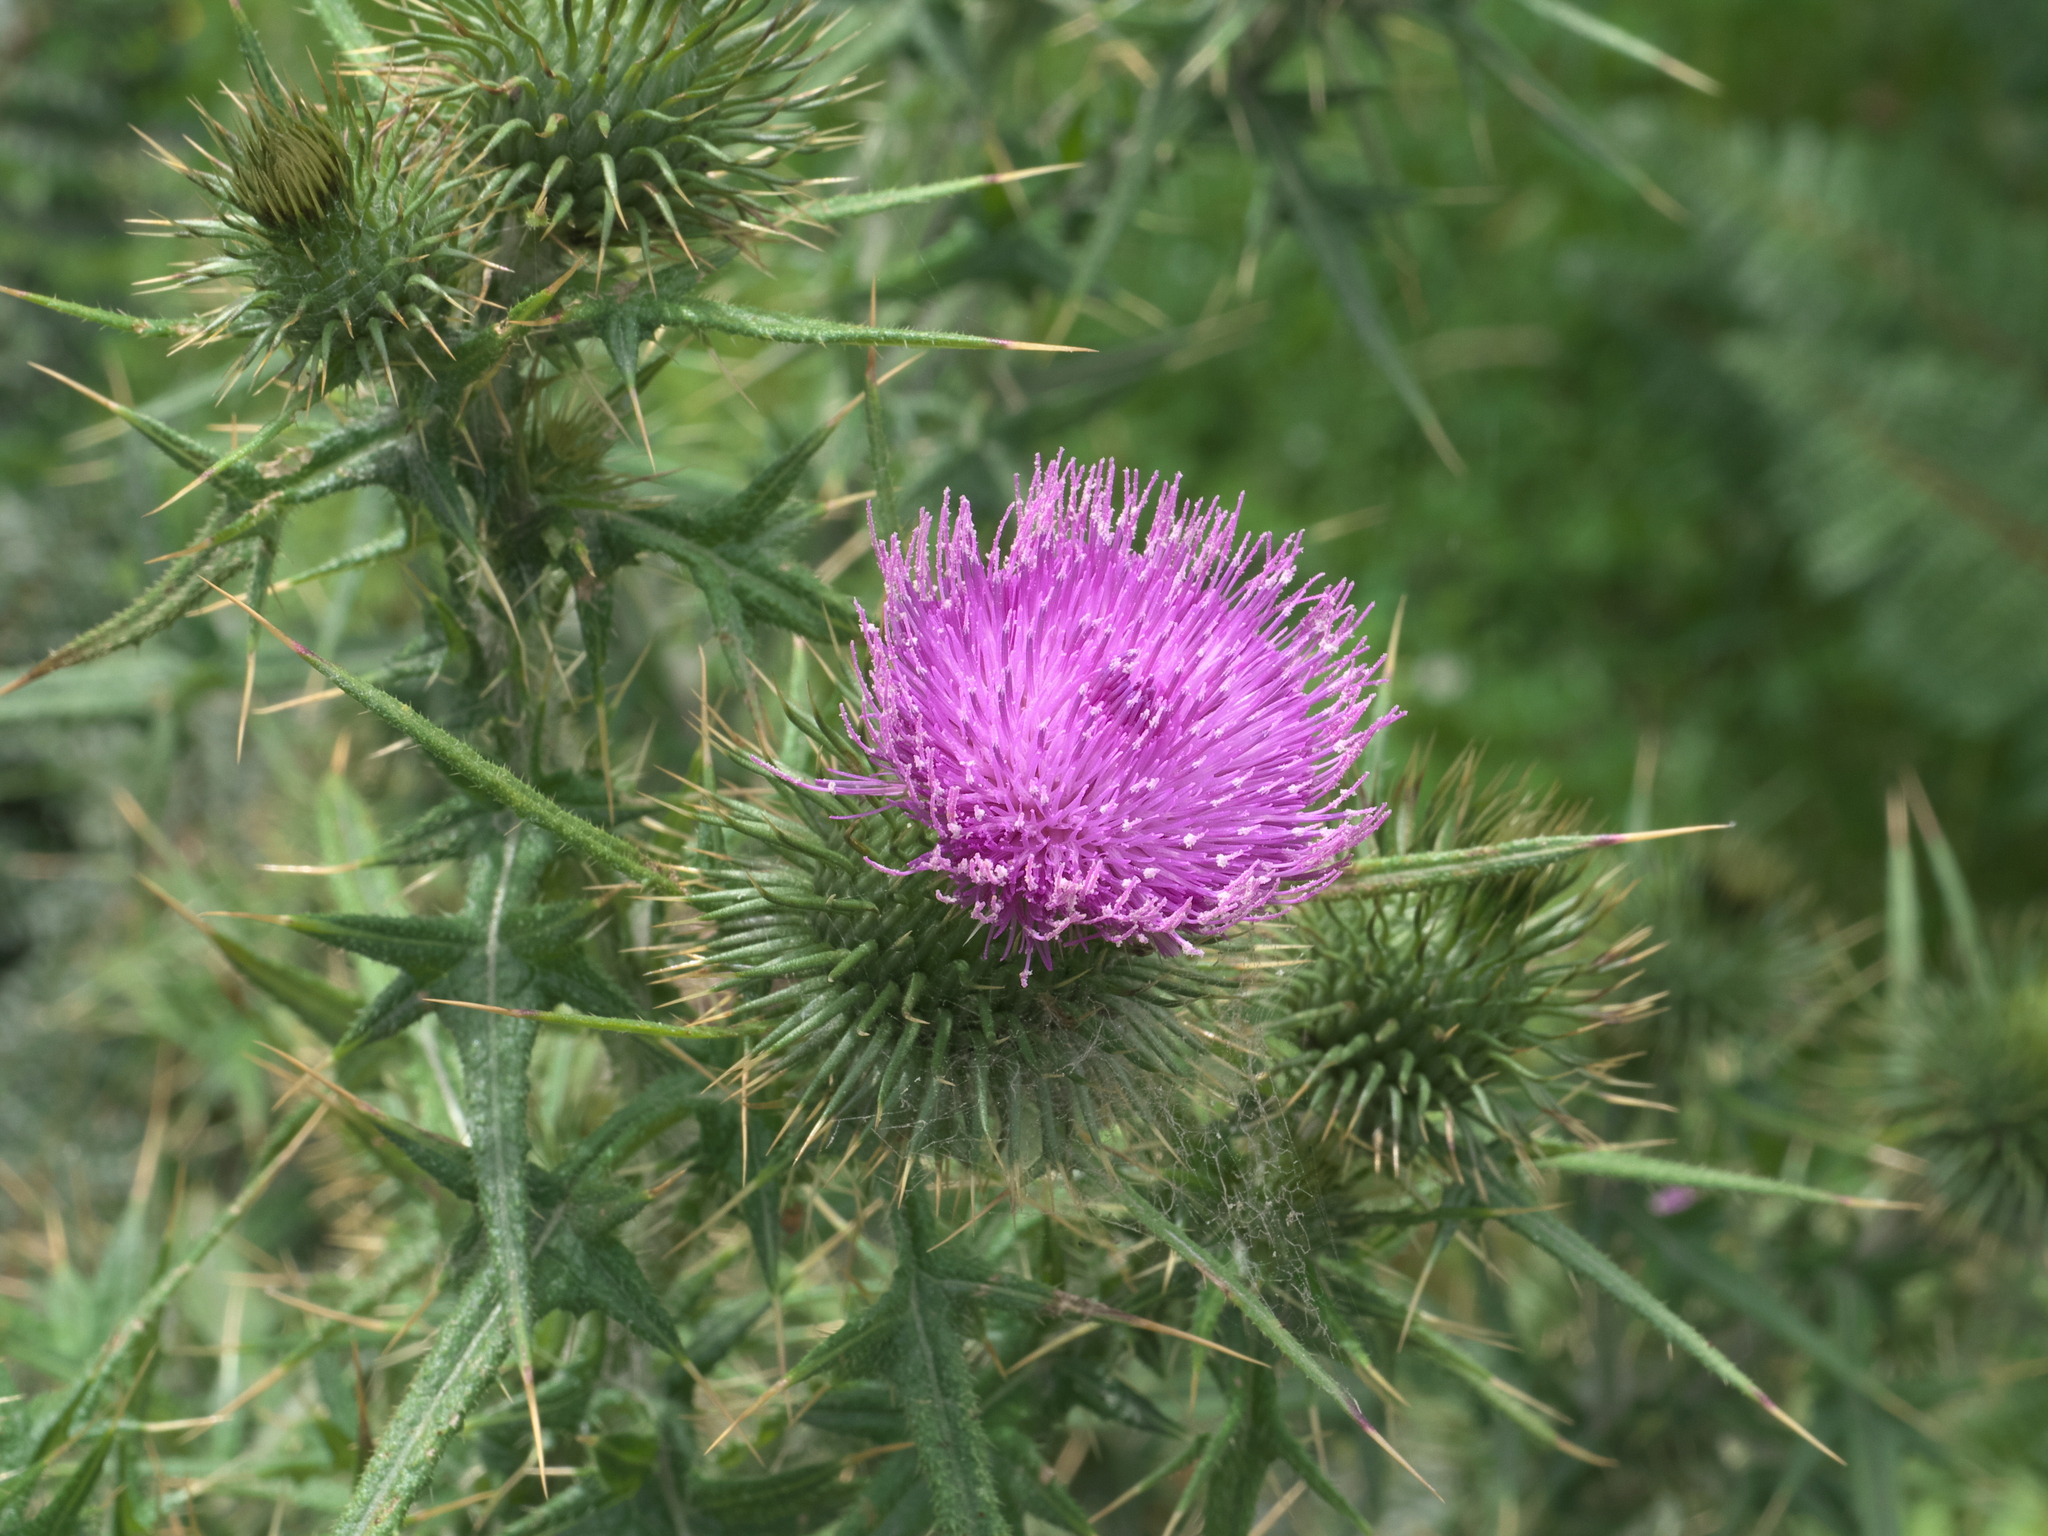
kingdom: Plantae
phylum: Tracheophyta
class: Magnoliopsida
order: Asterales
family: Asteraceae
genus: Cirsium
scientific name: Cirsium vulgare
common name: Bull thistle
